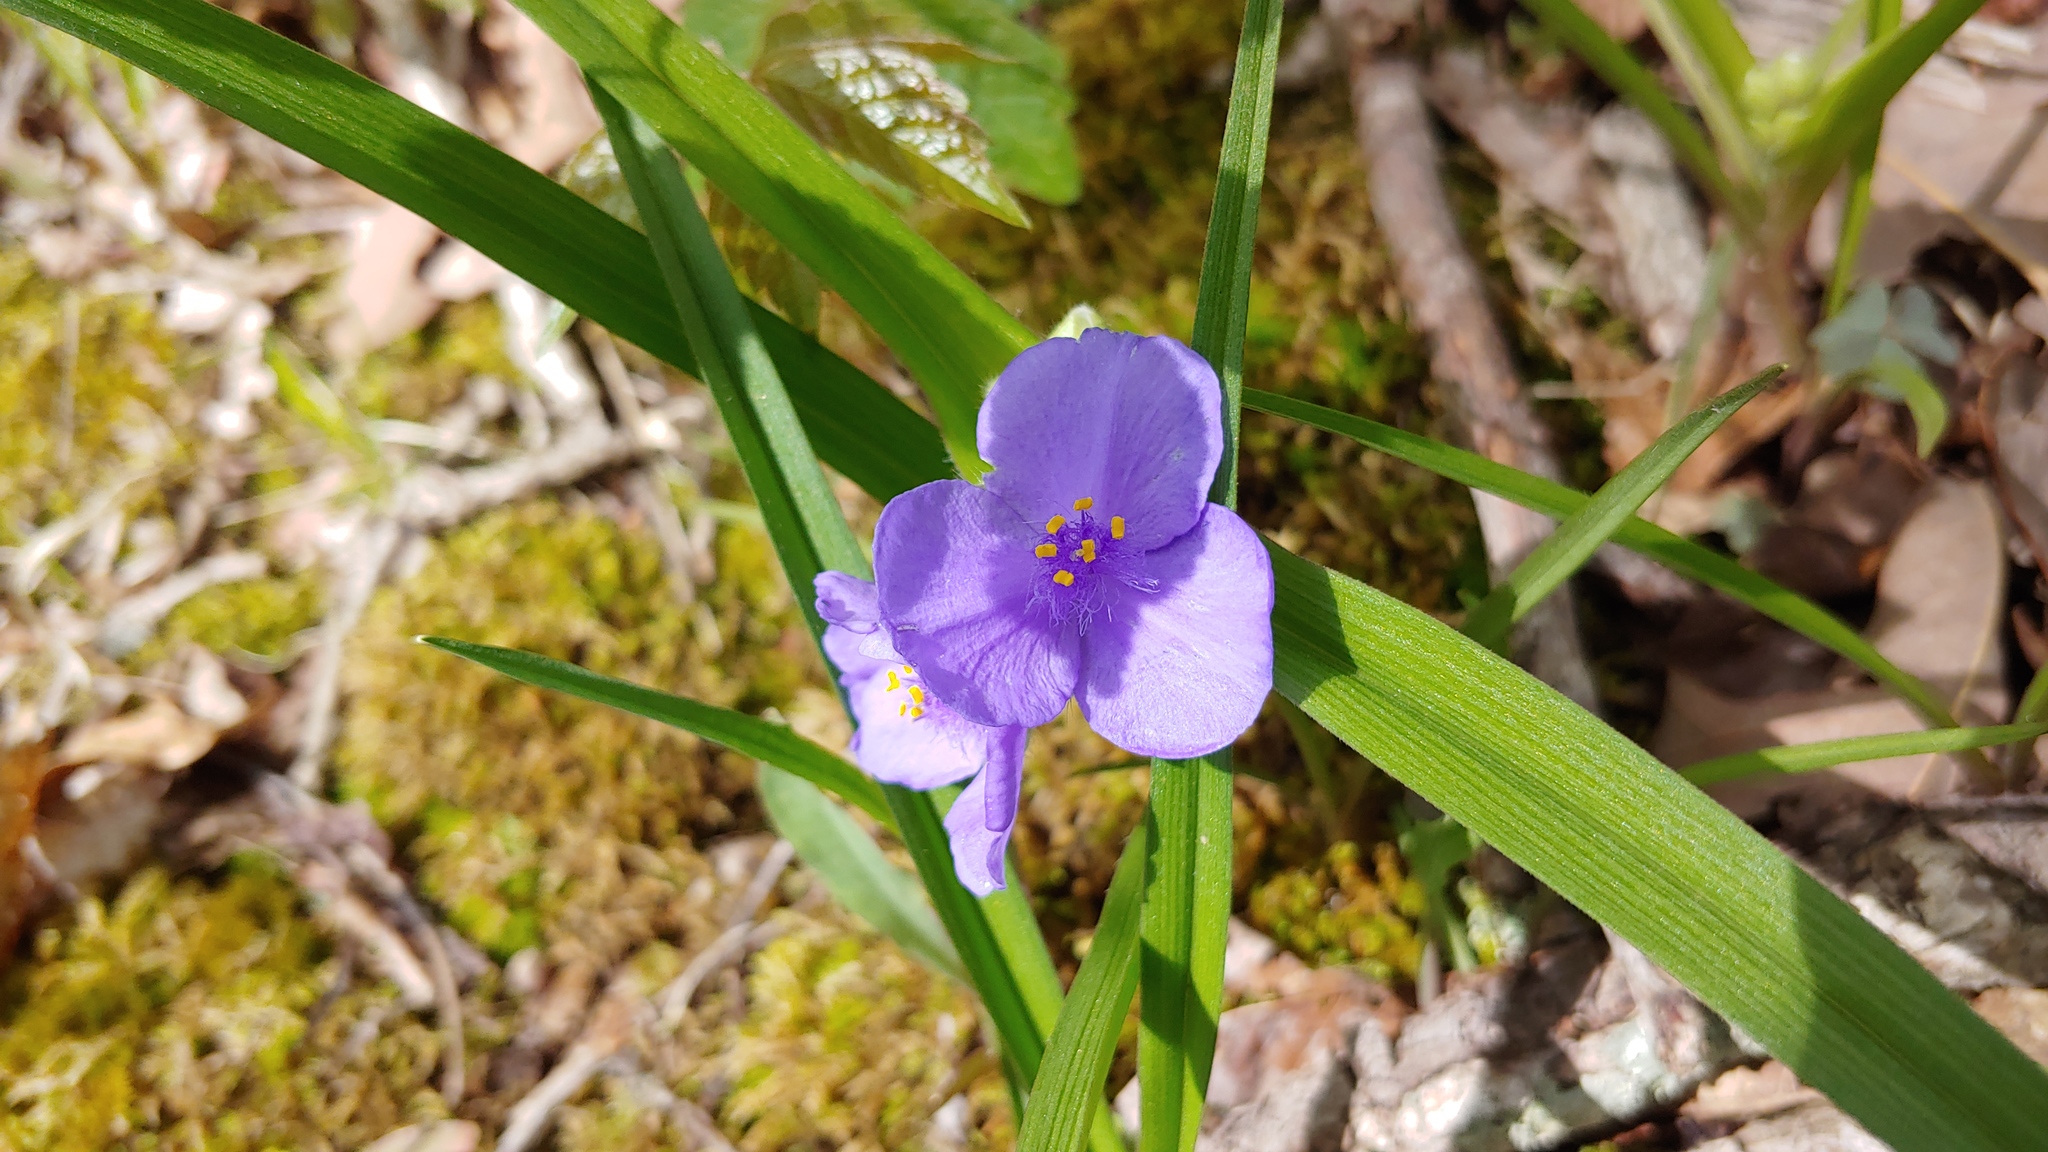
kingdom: Plantae
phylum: Tracheophyta
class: Liliopsida
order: Commelinales
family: Commelinaceae
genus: Tradescantia
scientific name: Tradescantia virginiana
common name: Spiderwort
